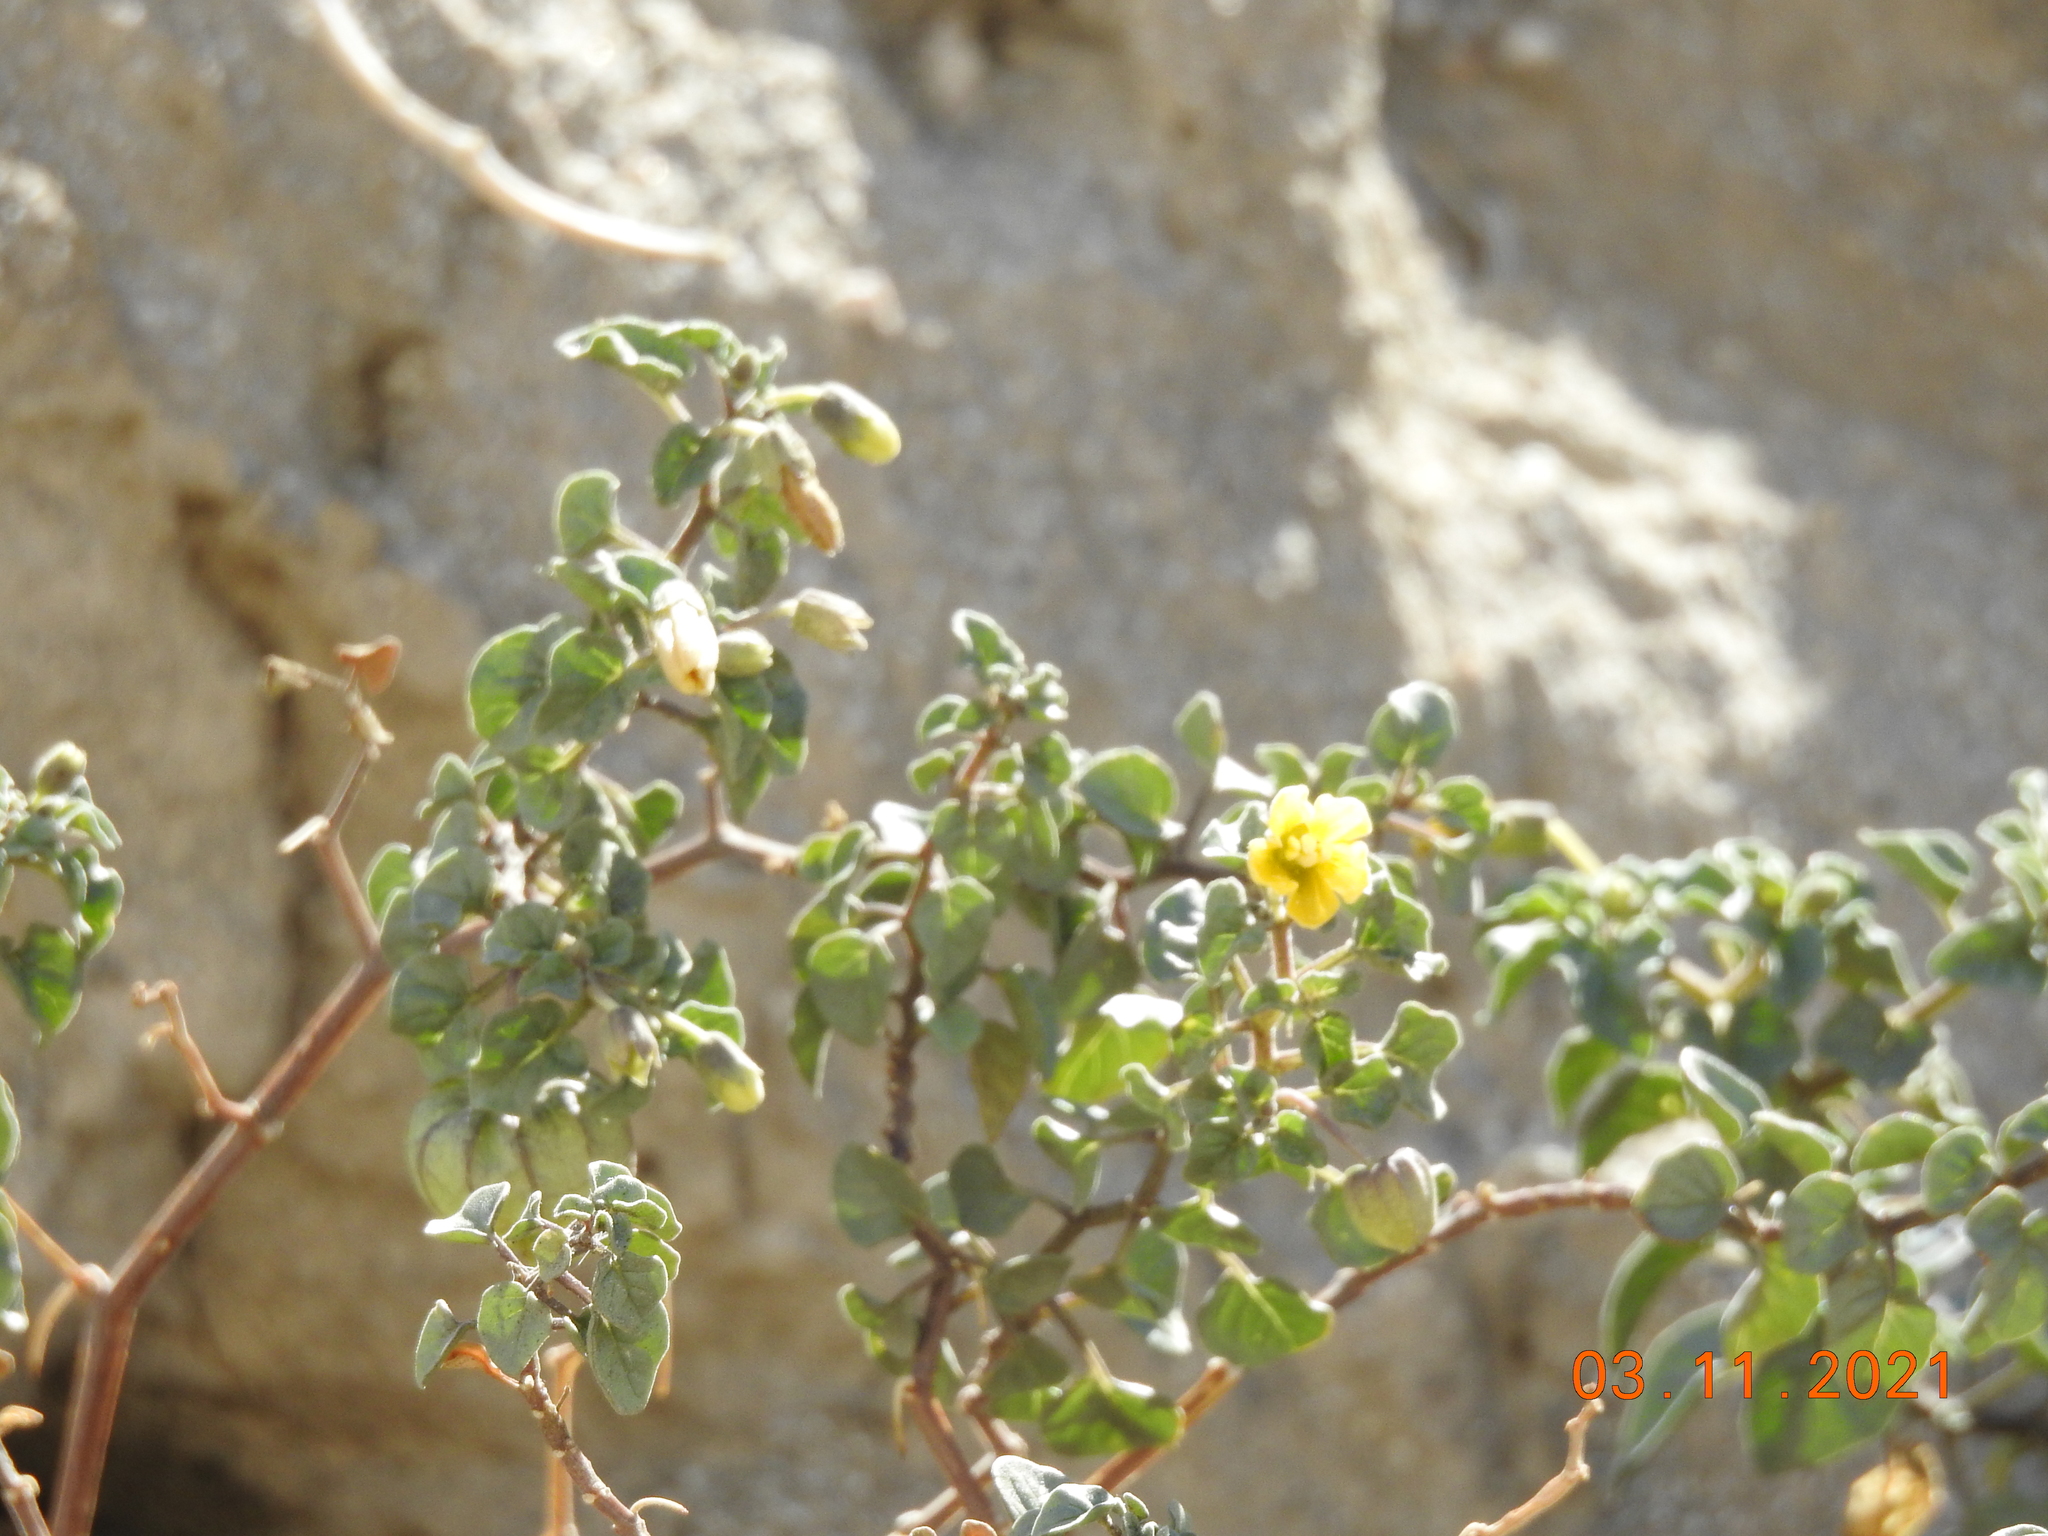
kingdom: Plantae
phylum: Tracheophyta
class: Magnoliopsida
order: Solanales
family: Solanaceae
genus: Physalis
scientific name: Physalis crassifolia
